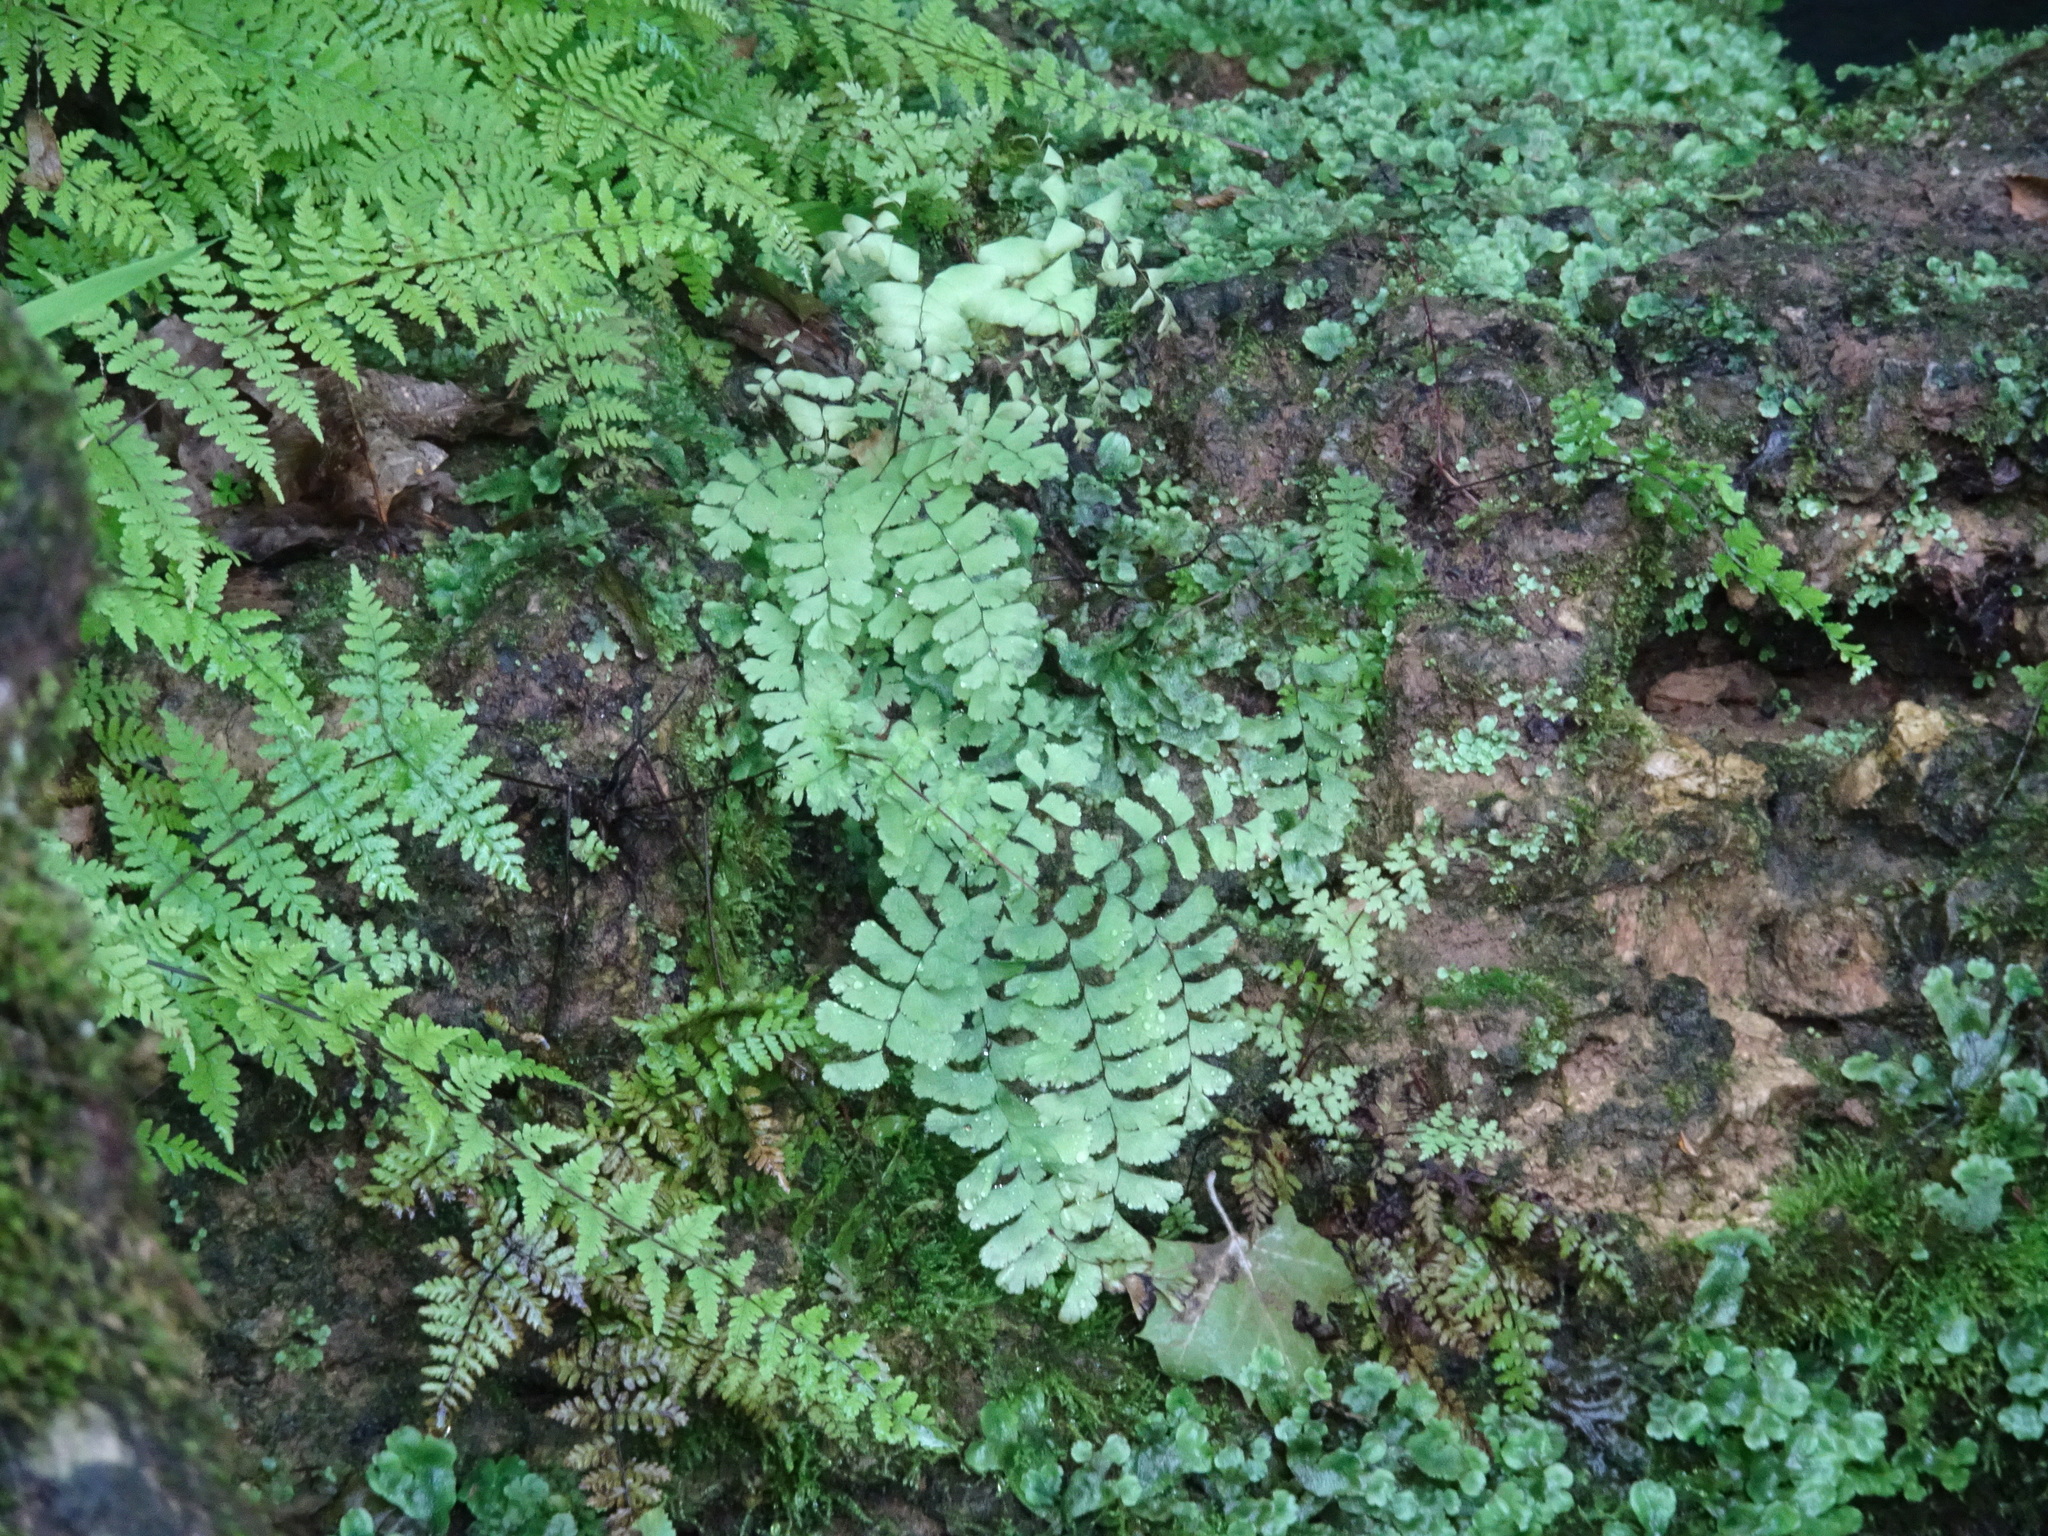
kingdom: Plantae
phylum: Tracheophyta
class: Polypodiopsida
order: Polypodiales
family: Pteridaceae
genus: Adiantum
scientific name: Adiantum pedatum
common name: Five-finger fern
